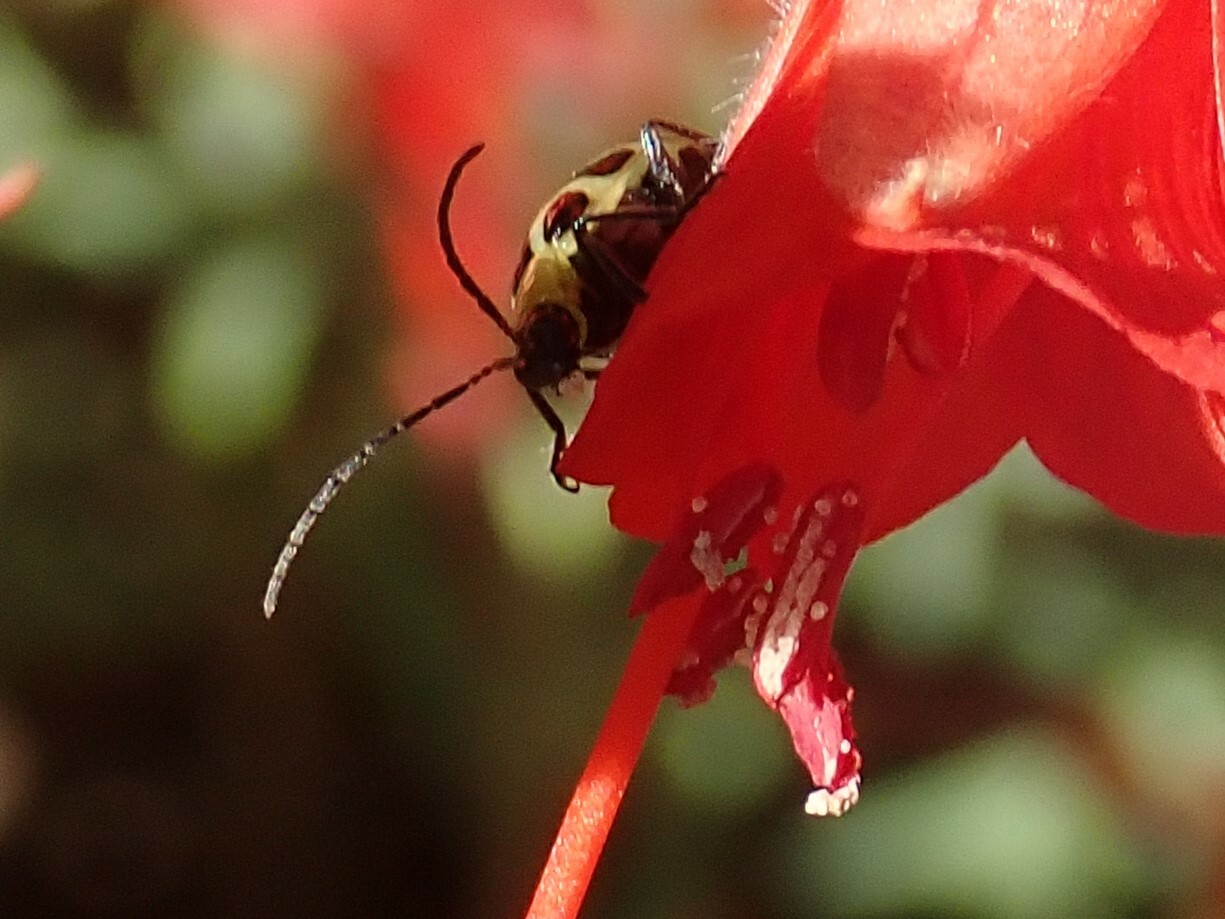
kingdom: Animalia
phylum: Arthropoda
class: Insecta
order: Coleoptera
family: Chrysomelidae
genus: Diabrotica
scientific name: Diabrotica undecimpunctata
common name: Spotted cucumber beetle
